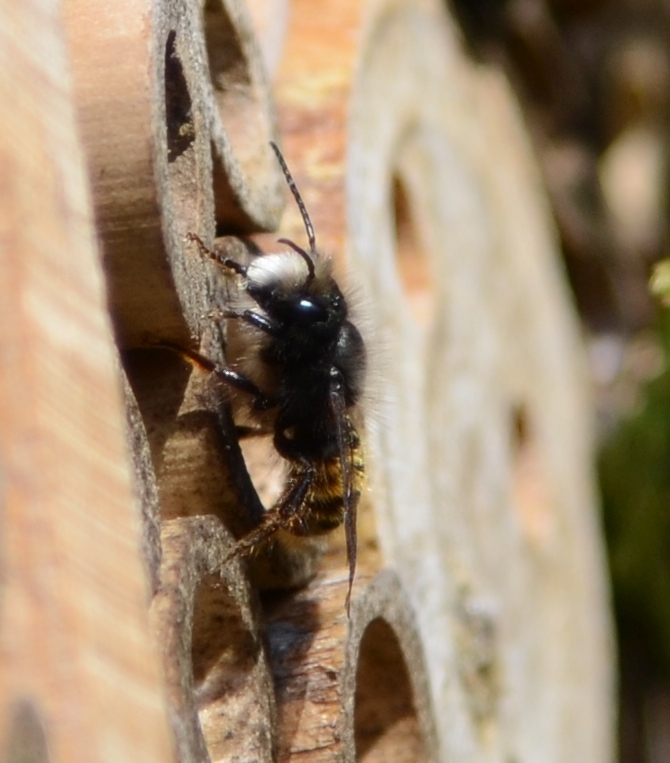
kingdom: Animalia
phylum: Arthropoda
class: Insecta
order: Hymenoptera
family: Megachilidae
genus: Osmia
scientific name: Osmia cornuta
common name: Mason bee
